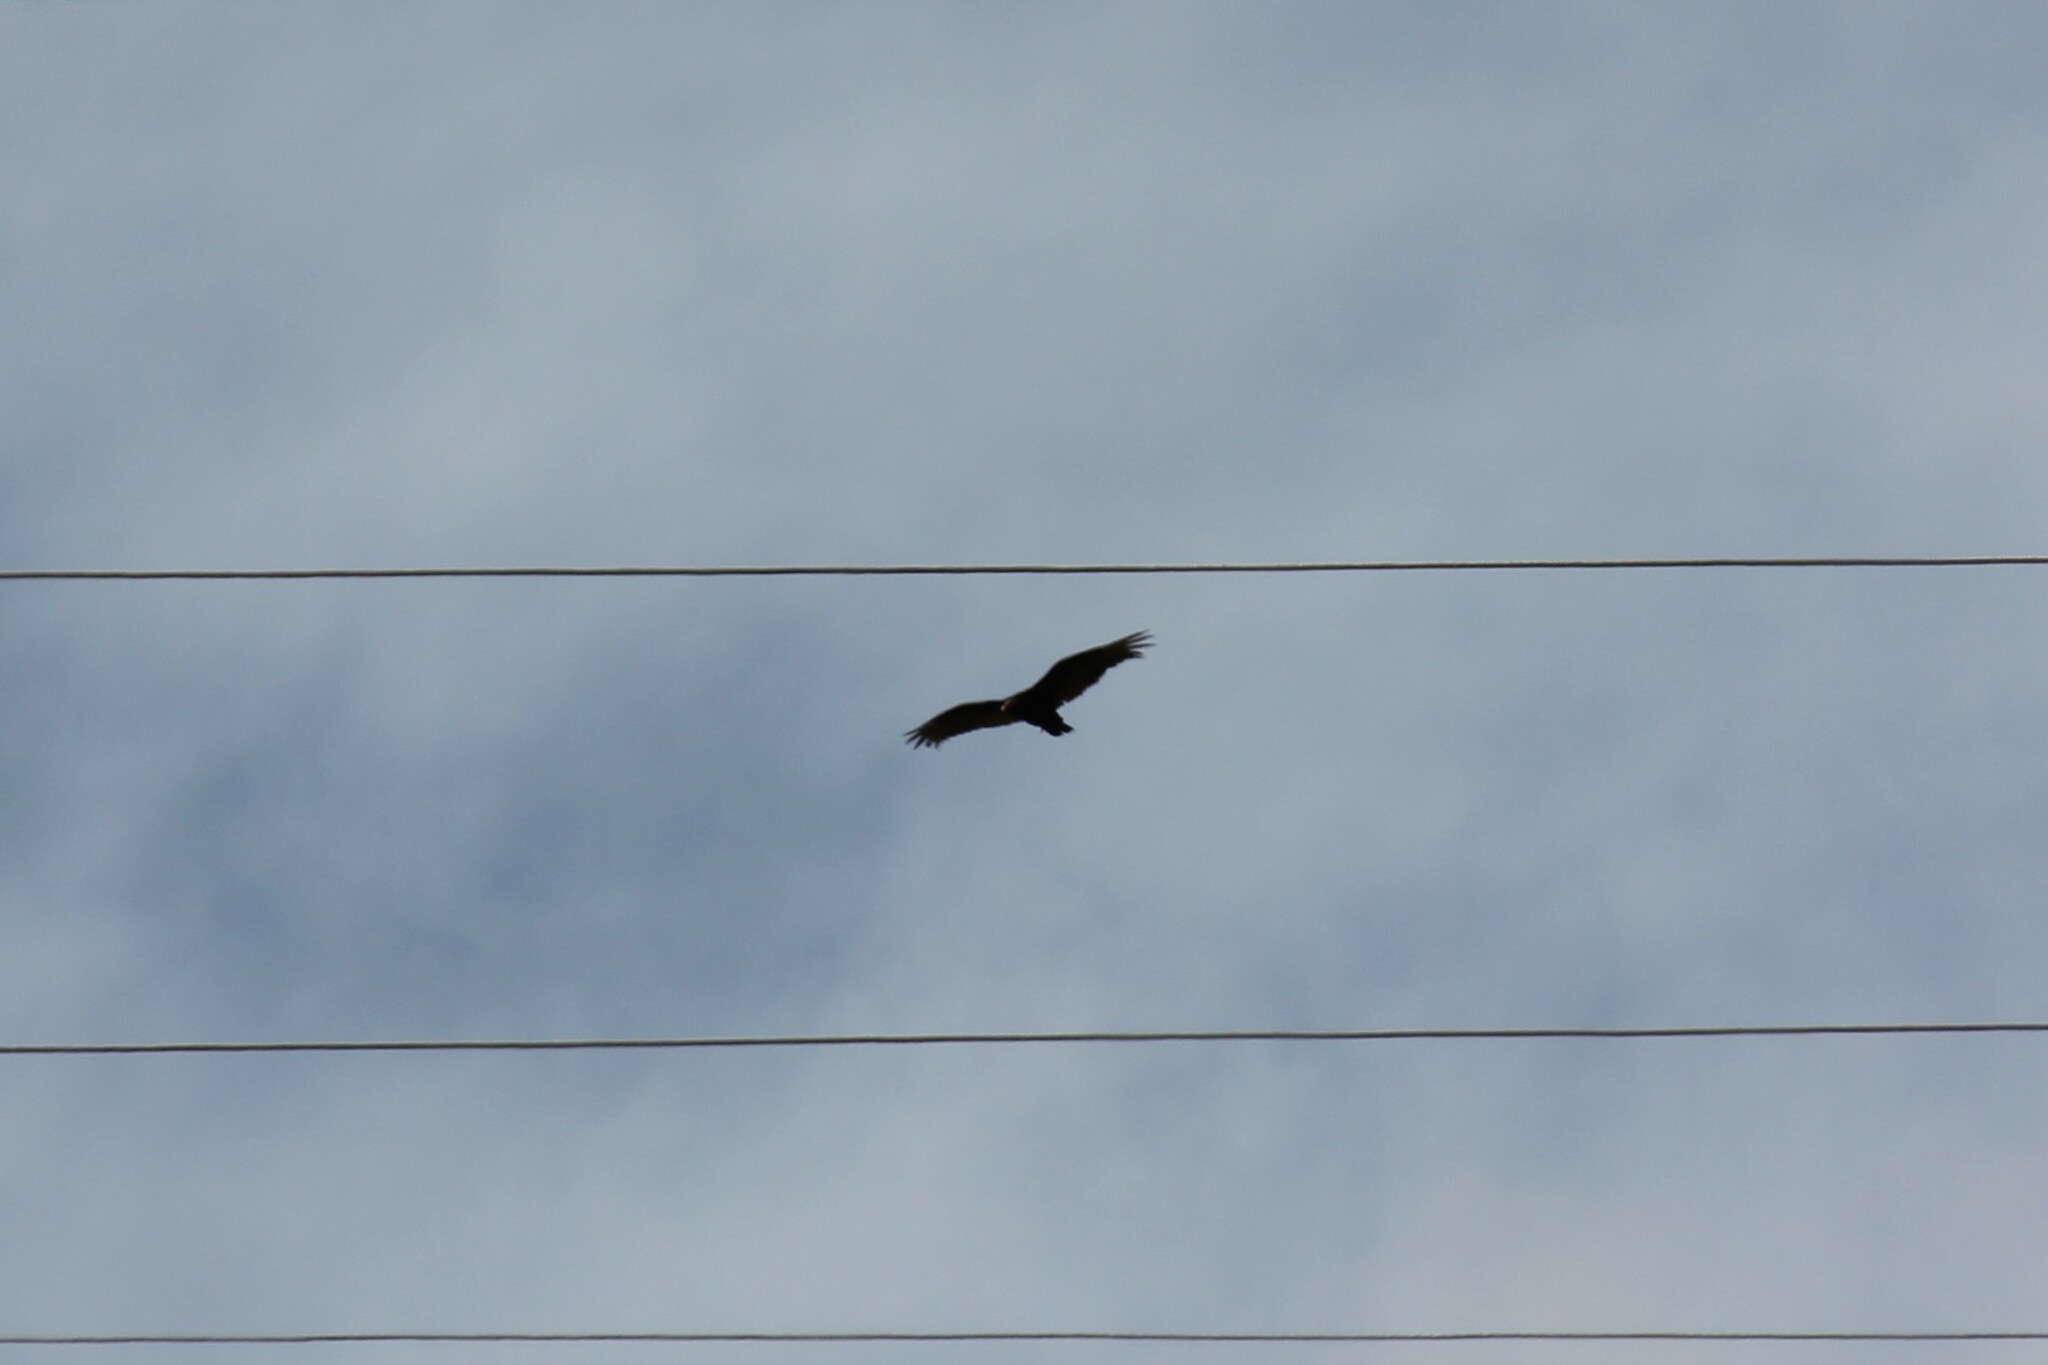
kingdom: Animalia
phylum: Chordata
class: Aves
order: Accipitriformes
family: Cathartidae
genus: Cathartes
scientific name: Cathartes aura
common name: Turkey vulture
